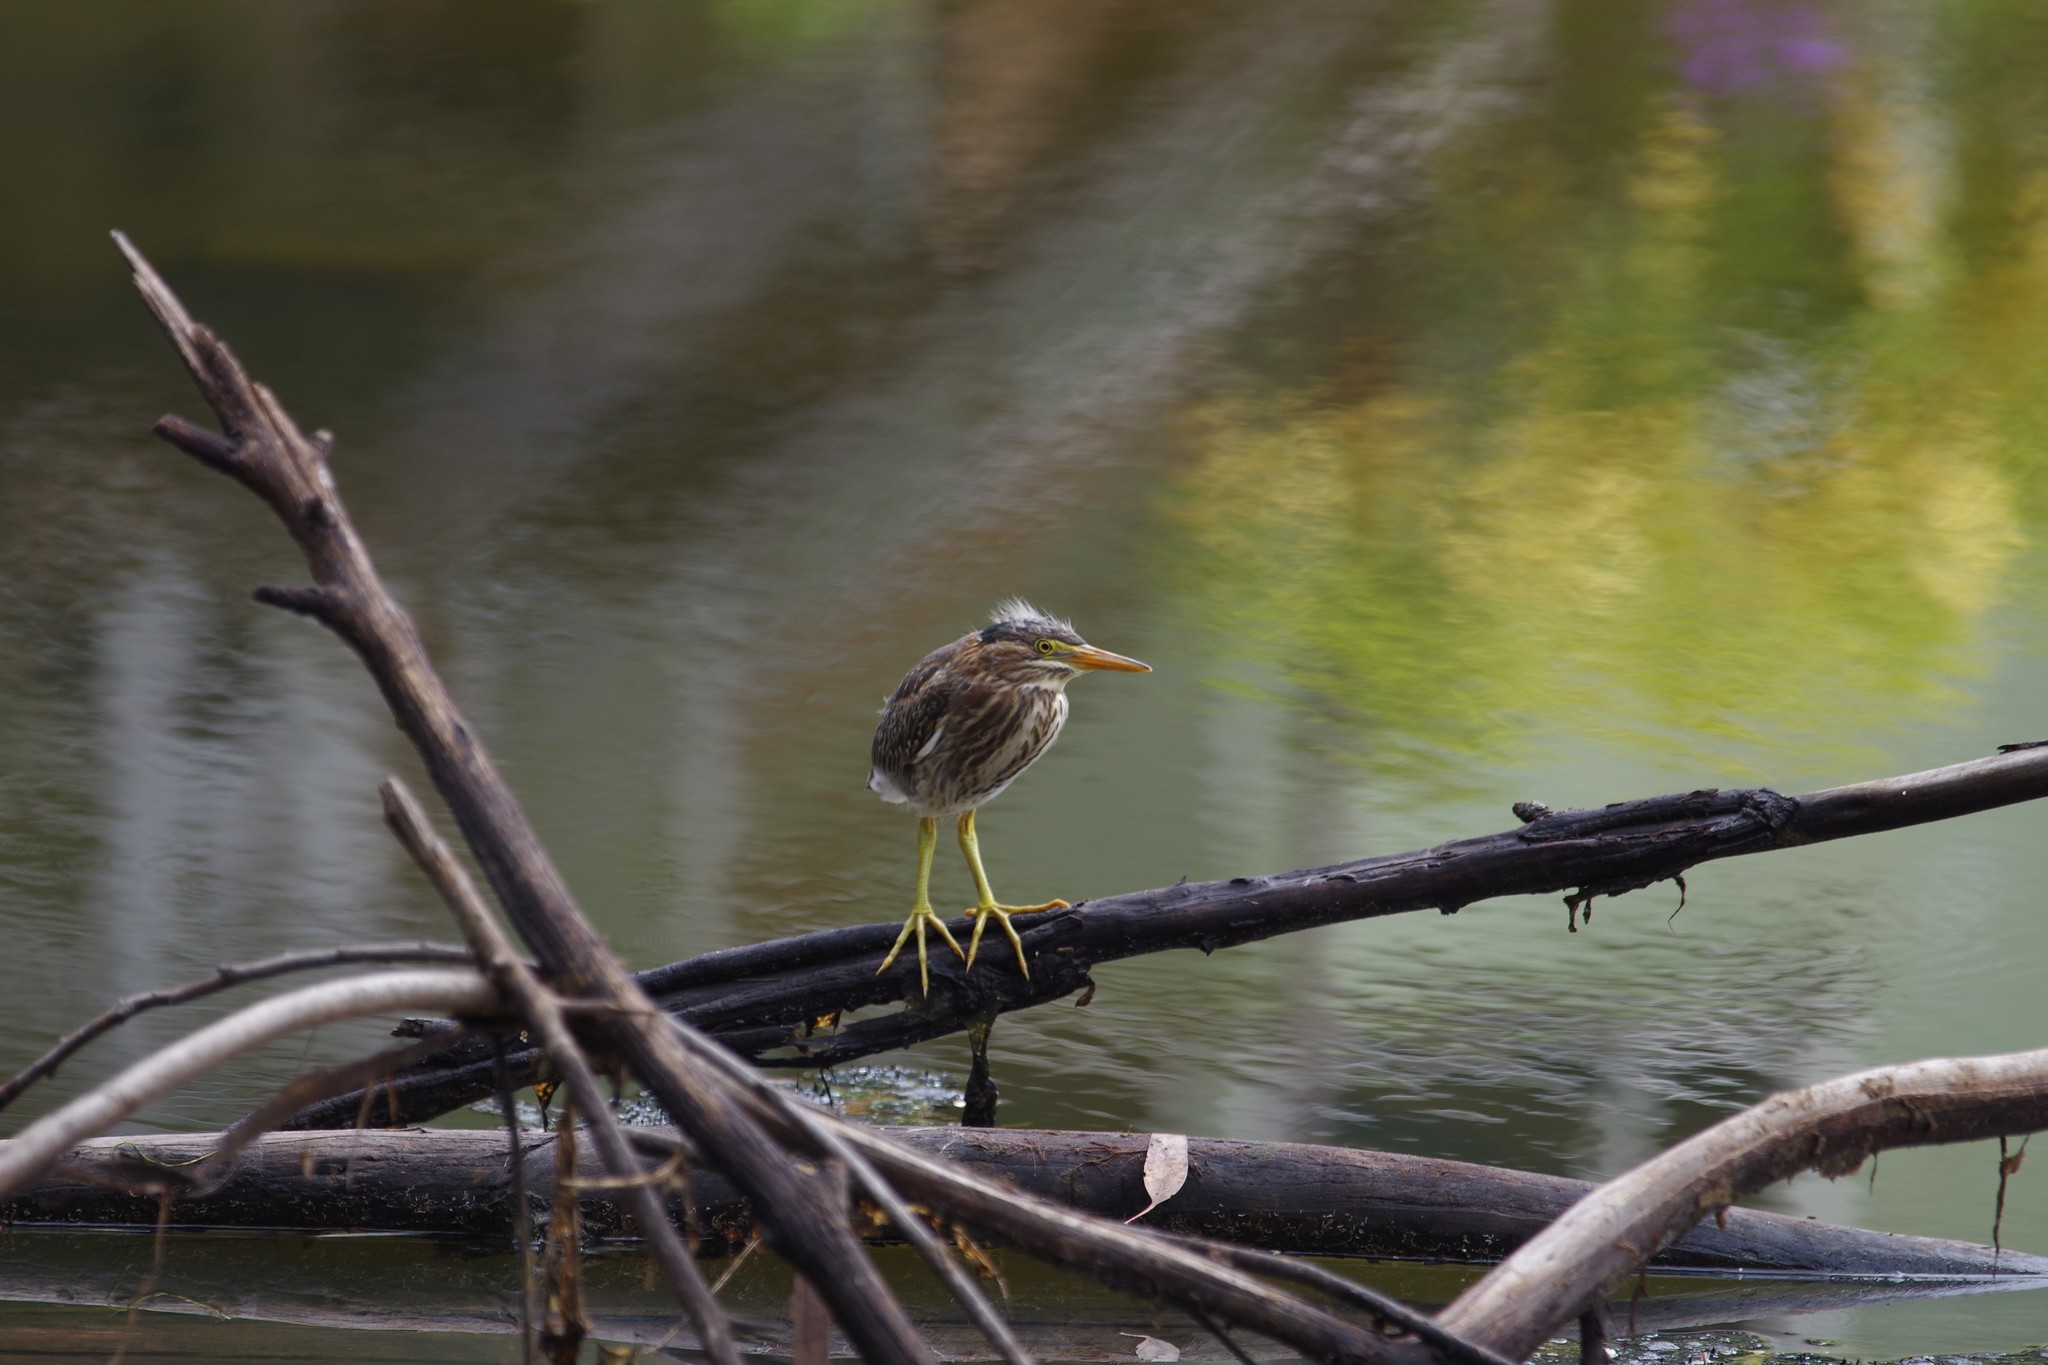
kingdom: Animalia
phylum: Chordata
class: Aves
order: Pelecaniformes
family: Ardeidae
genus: Butorides
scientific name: Butorides virescens
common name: Green heron
